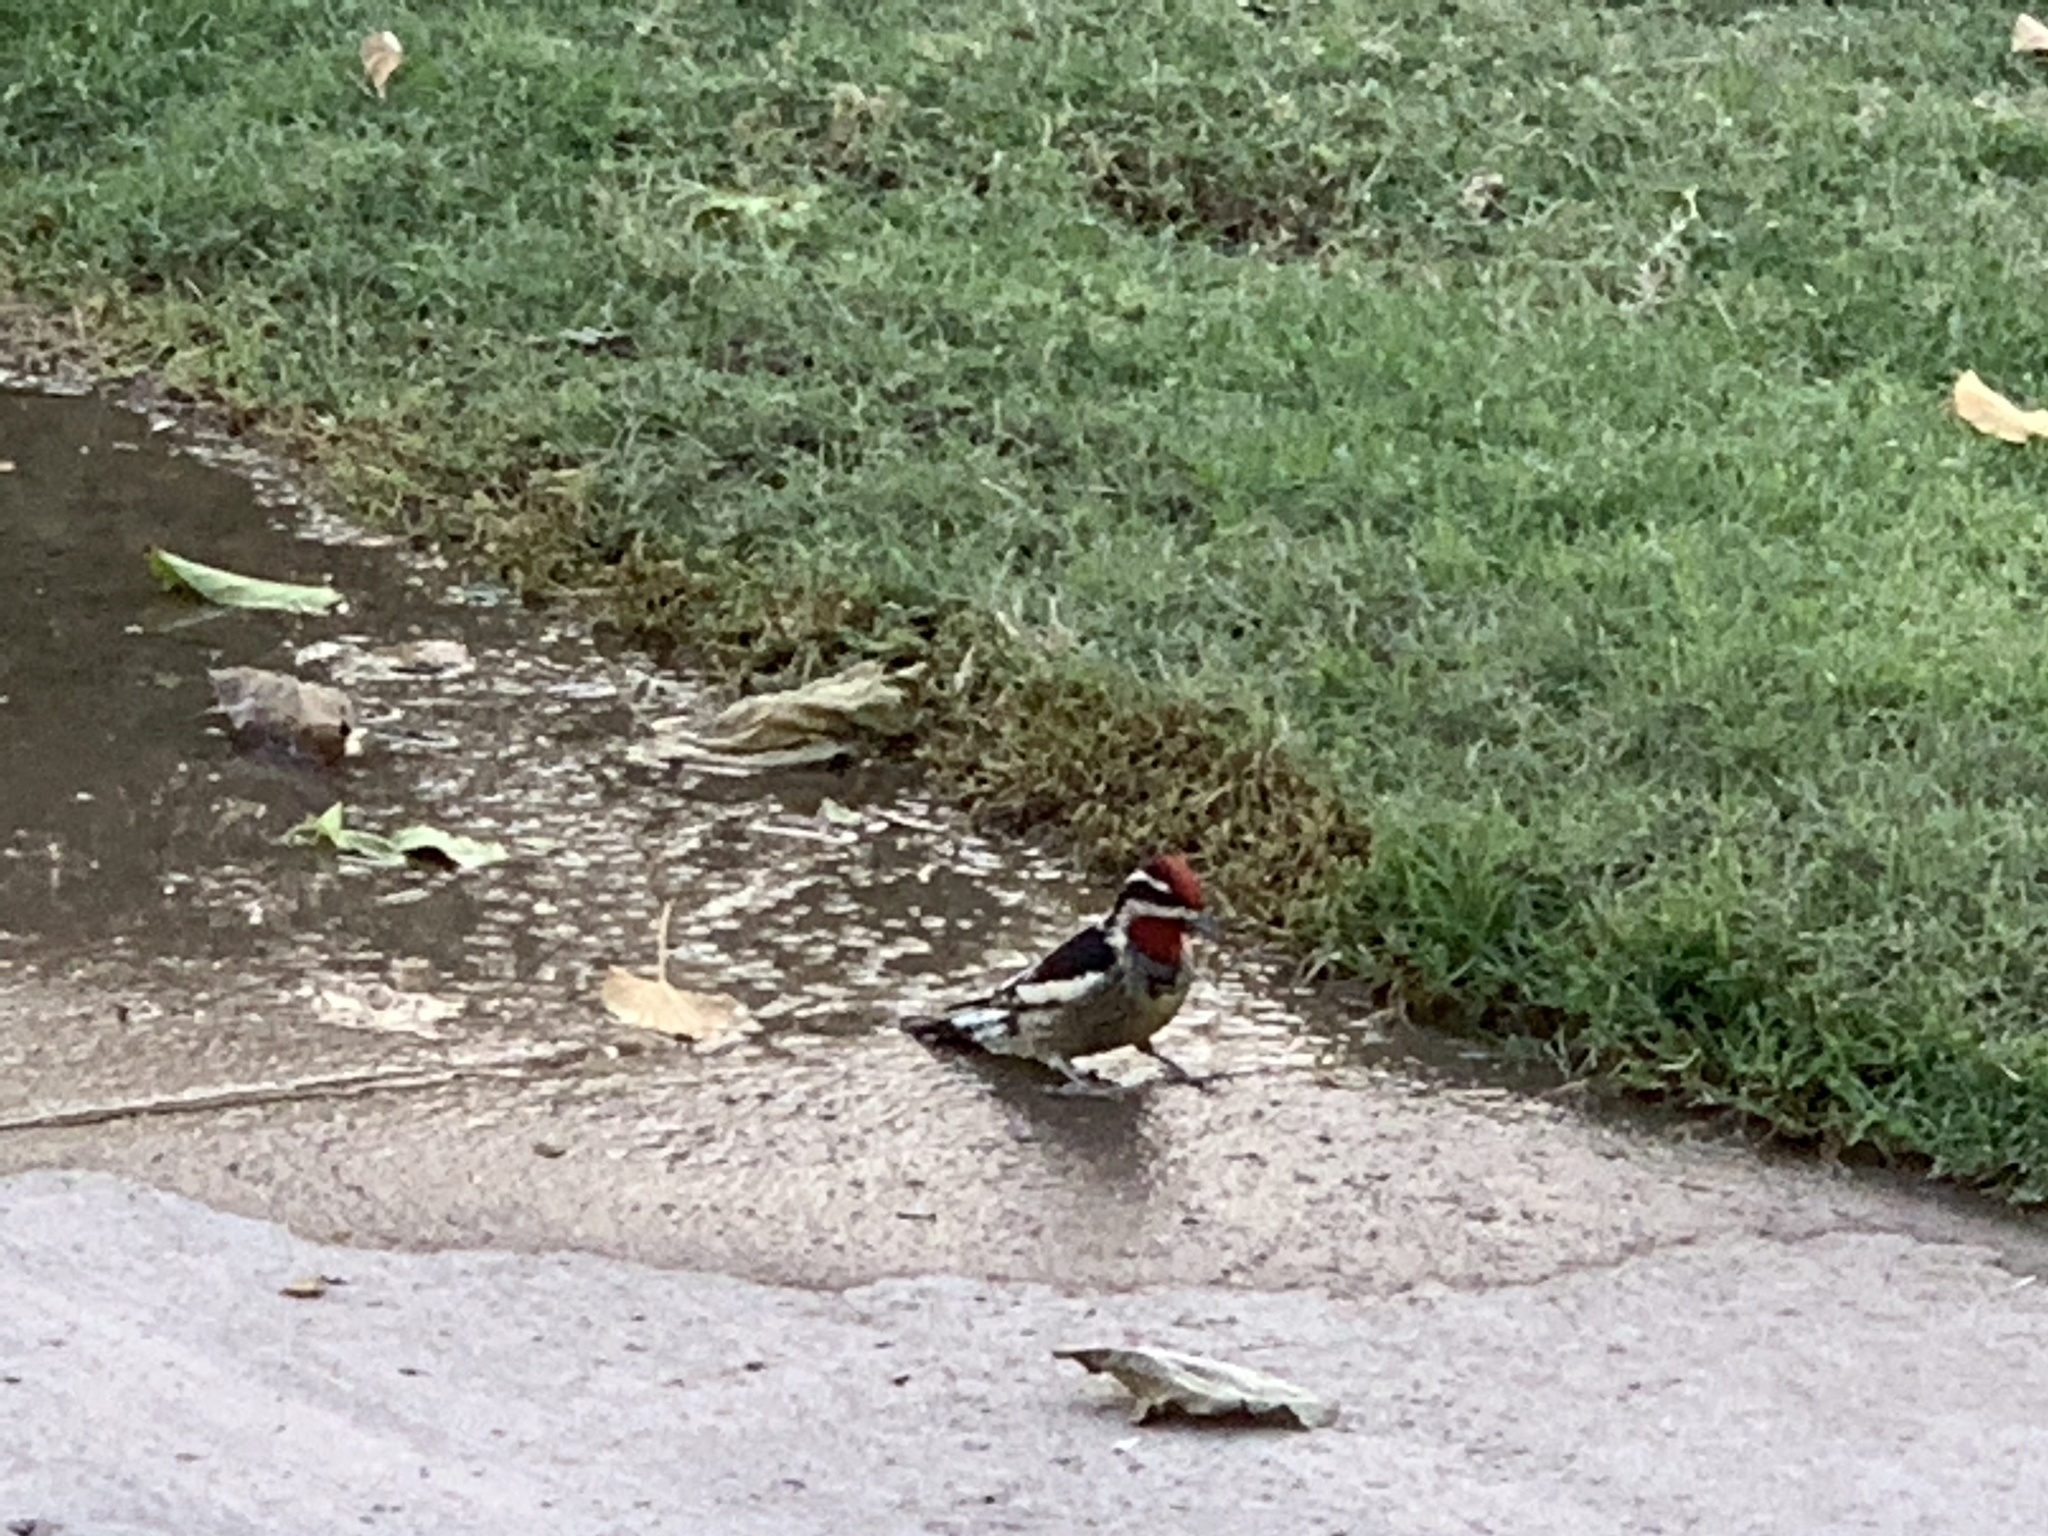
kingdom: Animalia
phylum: Chordata
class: Aves
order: Piciformes
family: Picidae
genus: Sphyrapicus
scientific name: Sphyrapicus nuchalis
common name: Red-naped sapsucker
